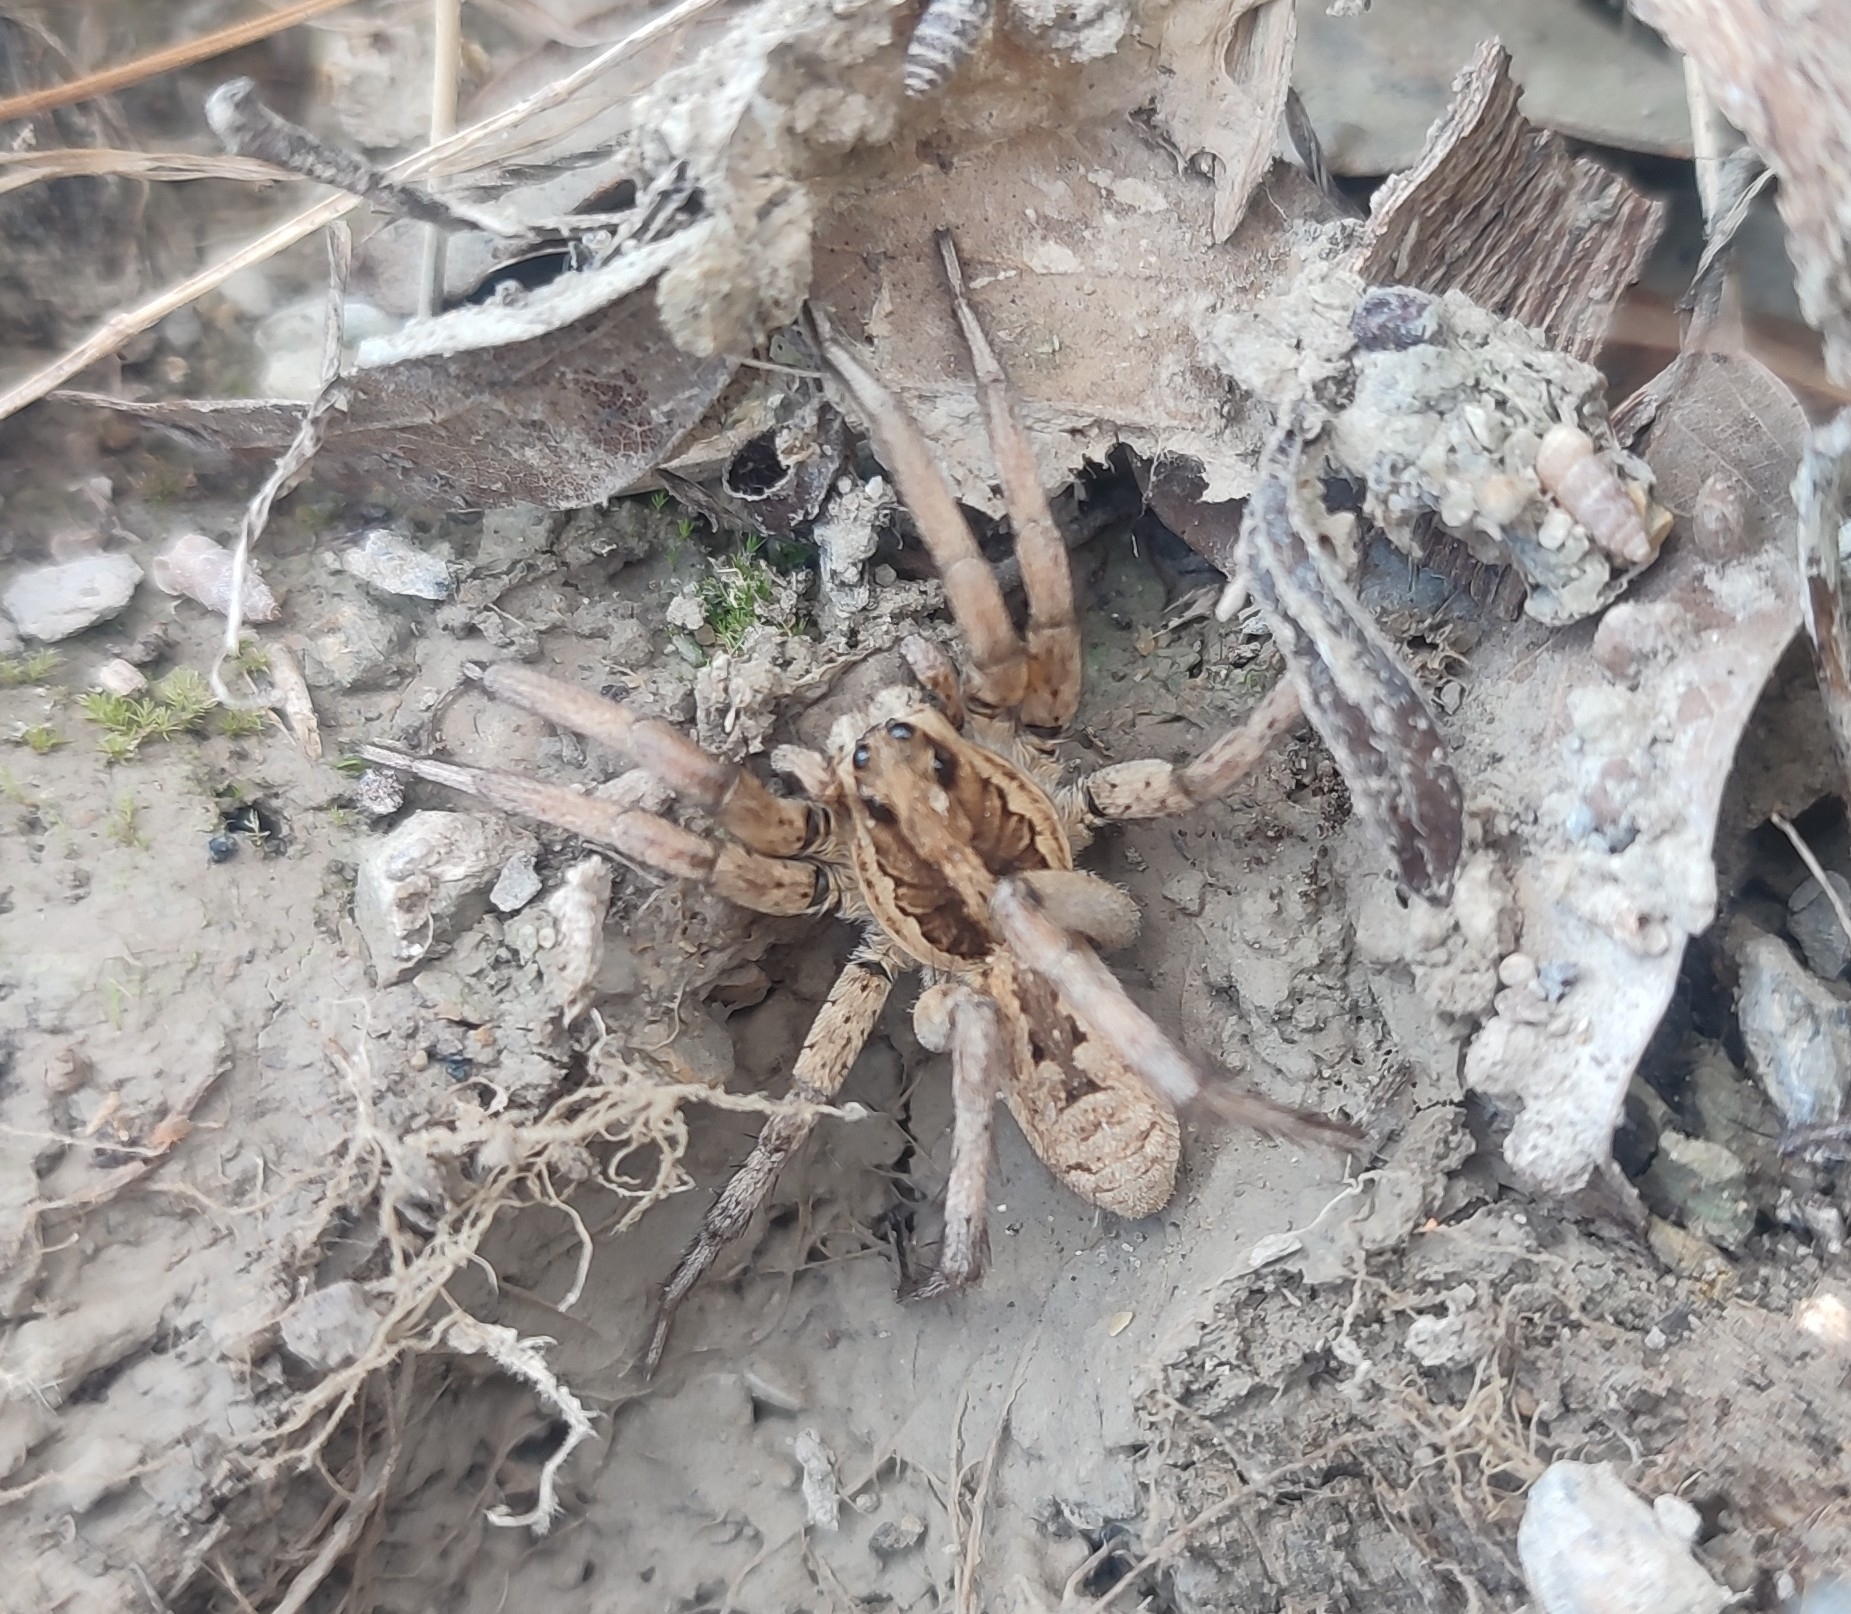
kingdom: Animalia
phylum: Arthropoda
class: Arachnida
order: Araneae
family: Lycosidae
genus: Lycosa
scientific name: Lycosa tarantula
